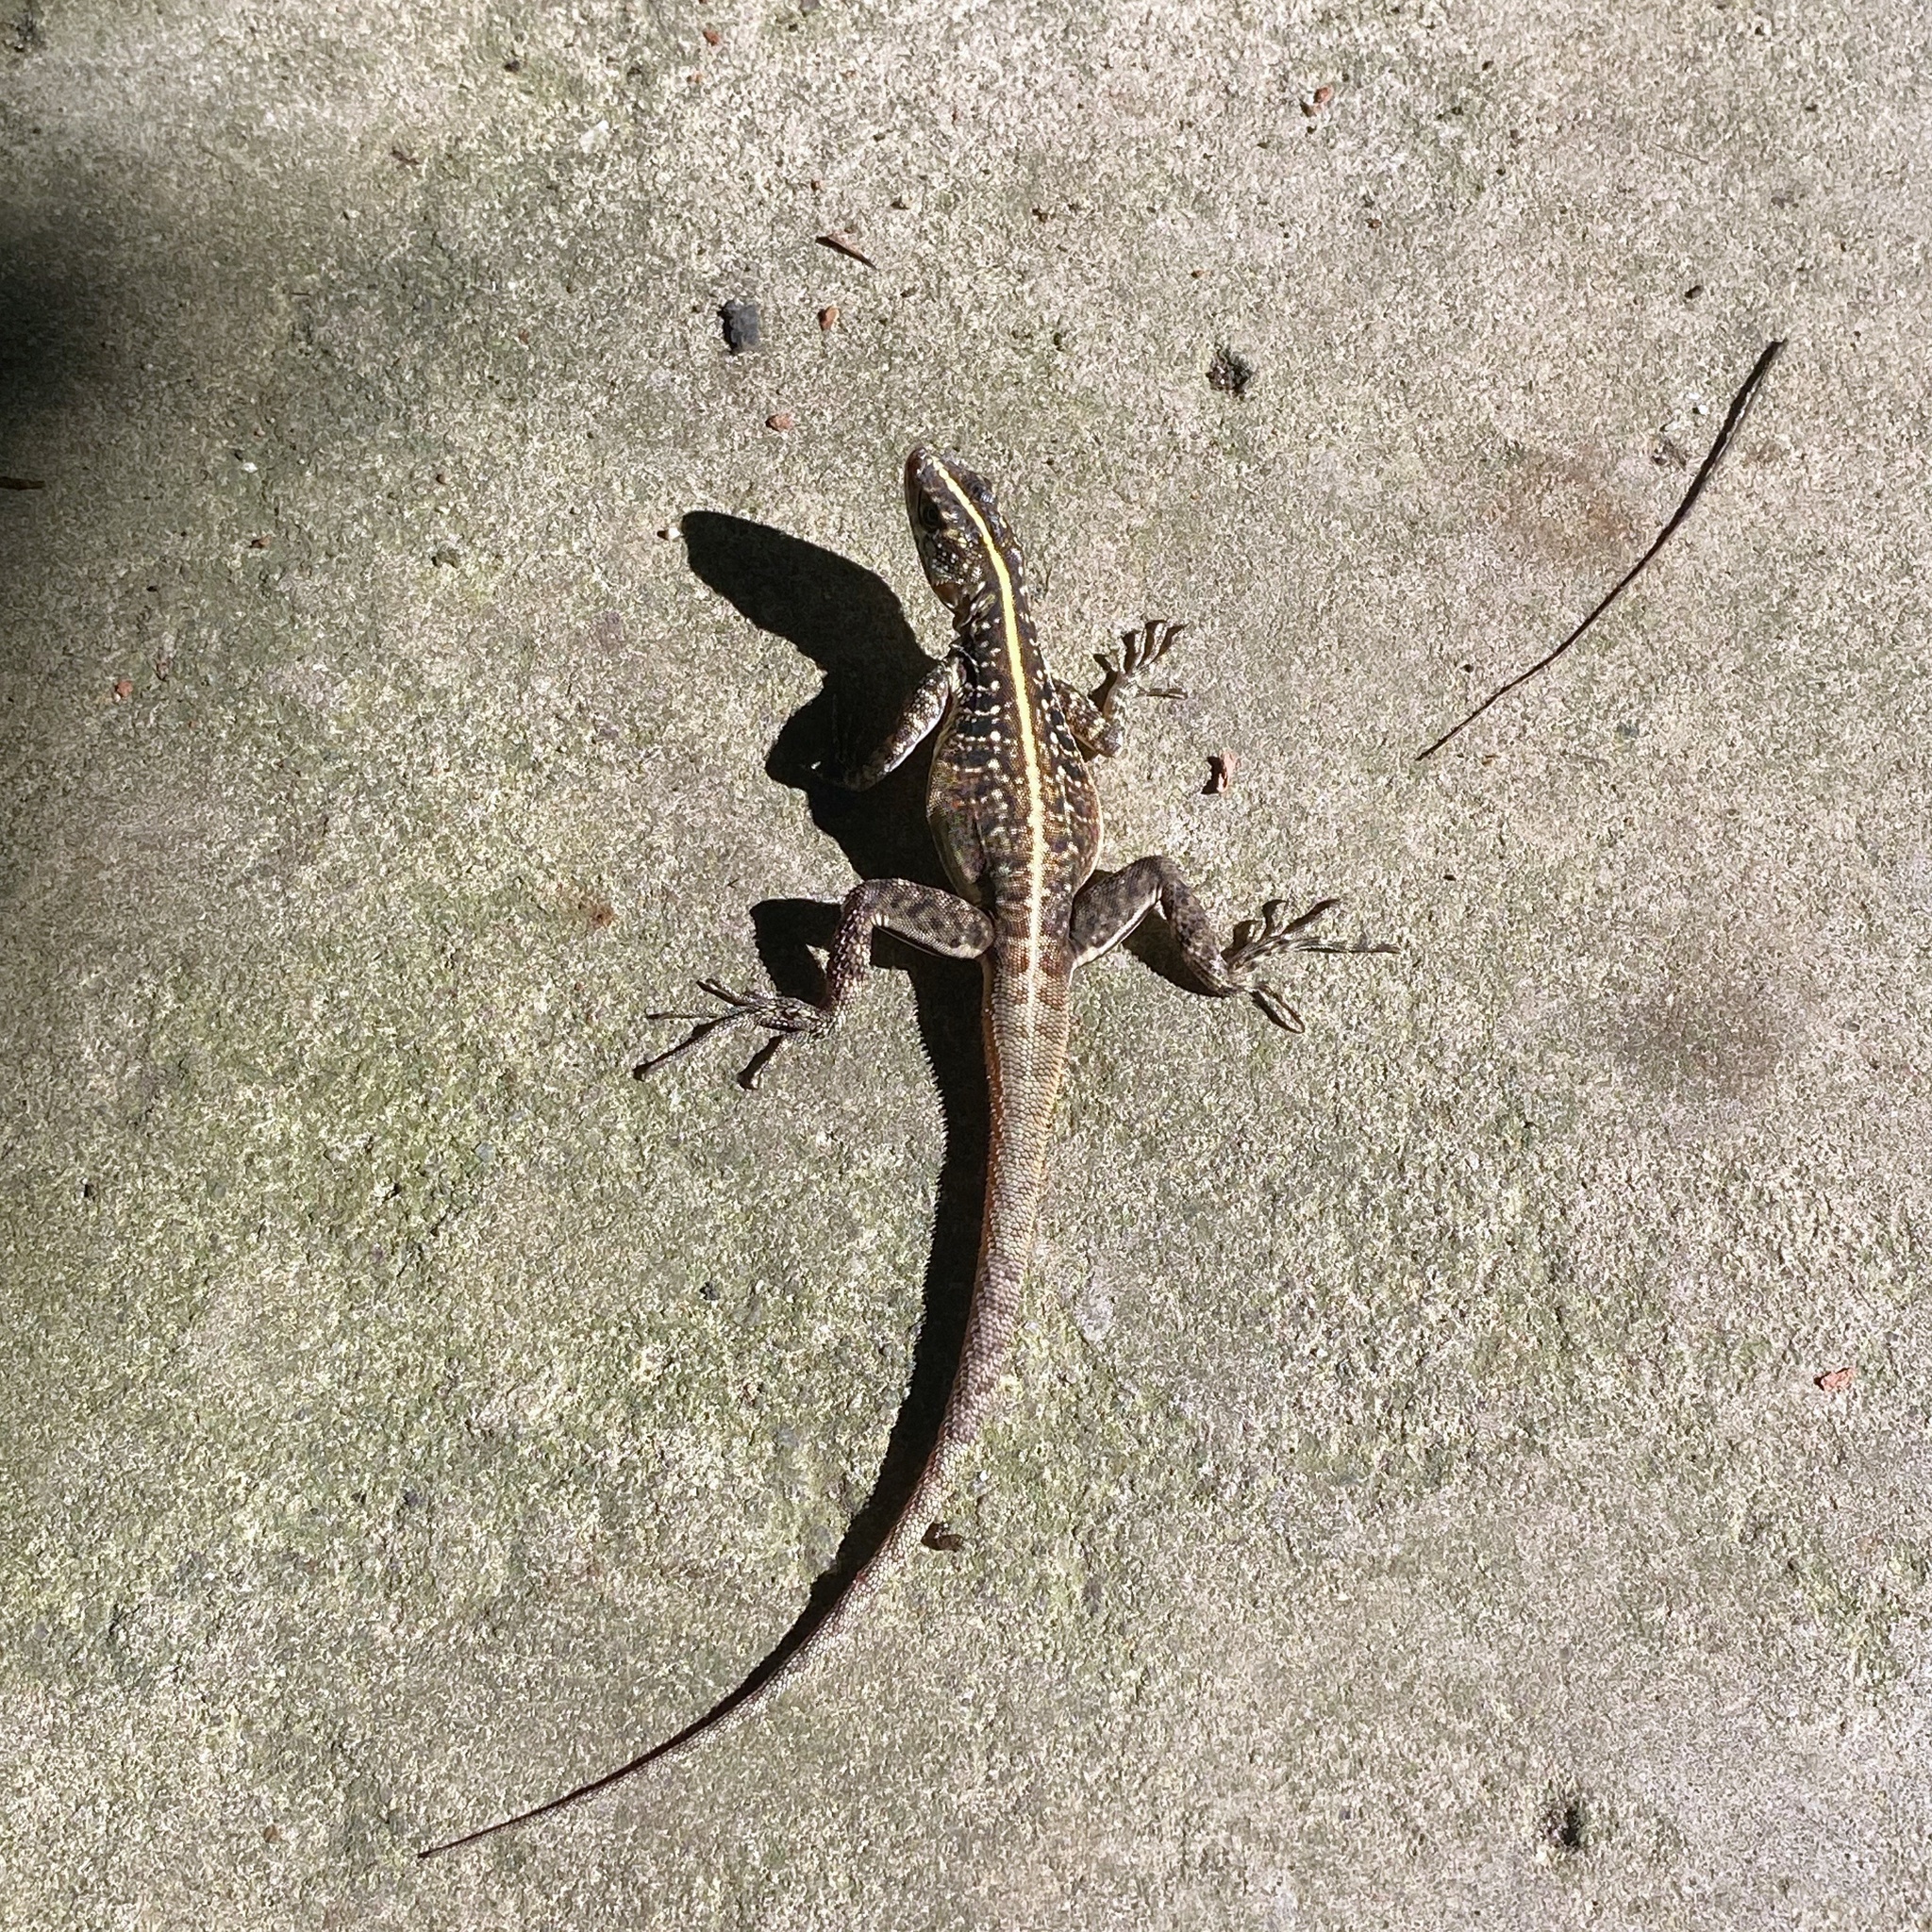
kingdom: Animalia
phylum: Chordata
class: Squamata
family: Tropiduridae
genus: Tropidurus
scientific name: Tropidurus semitaeniatus
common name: Striped lava lizard
